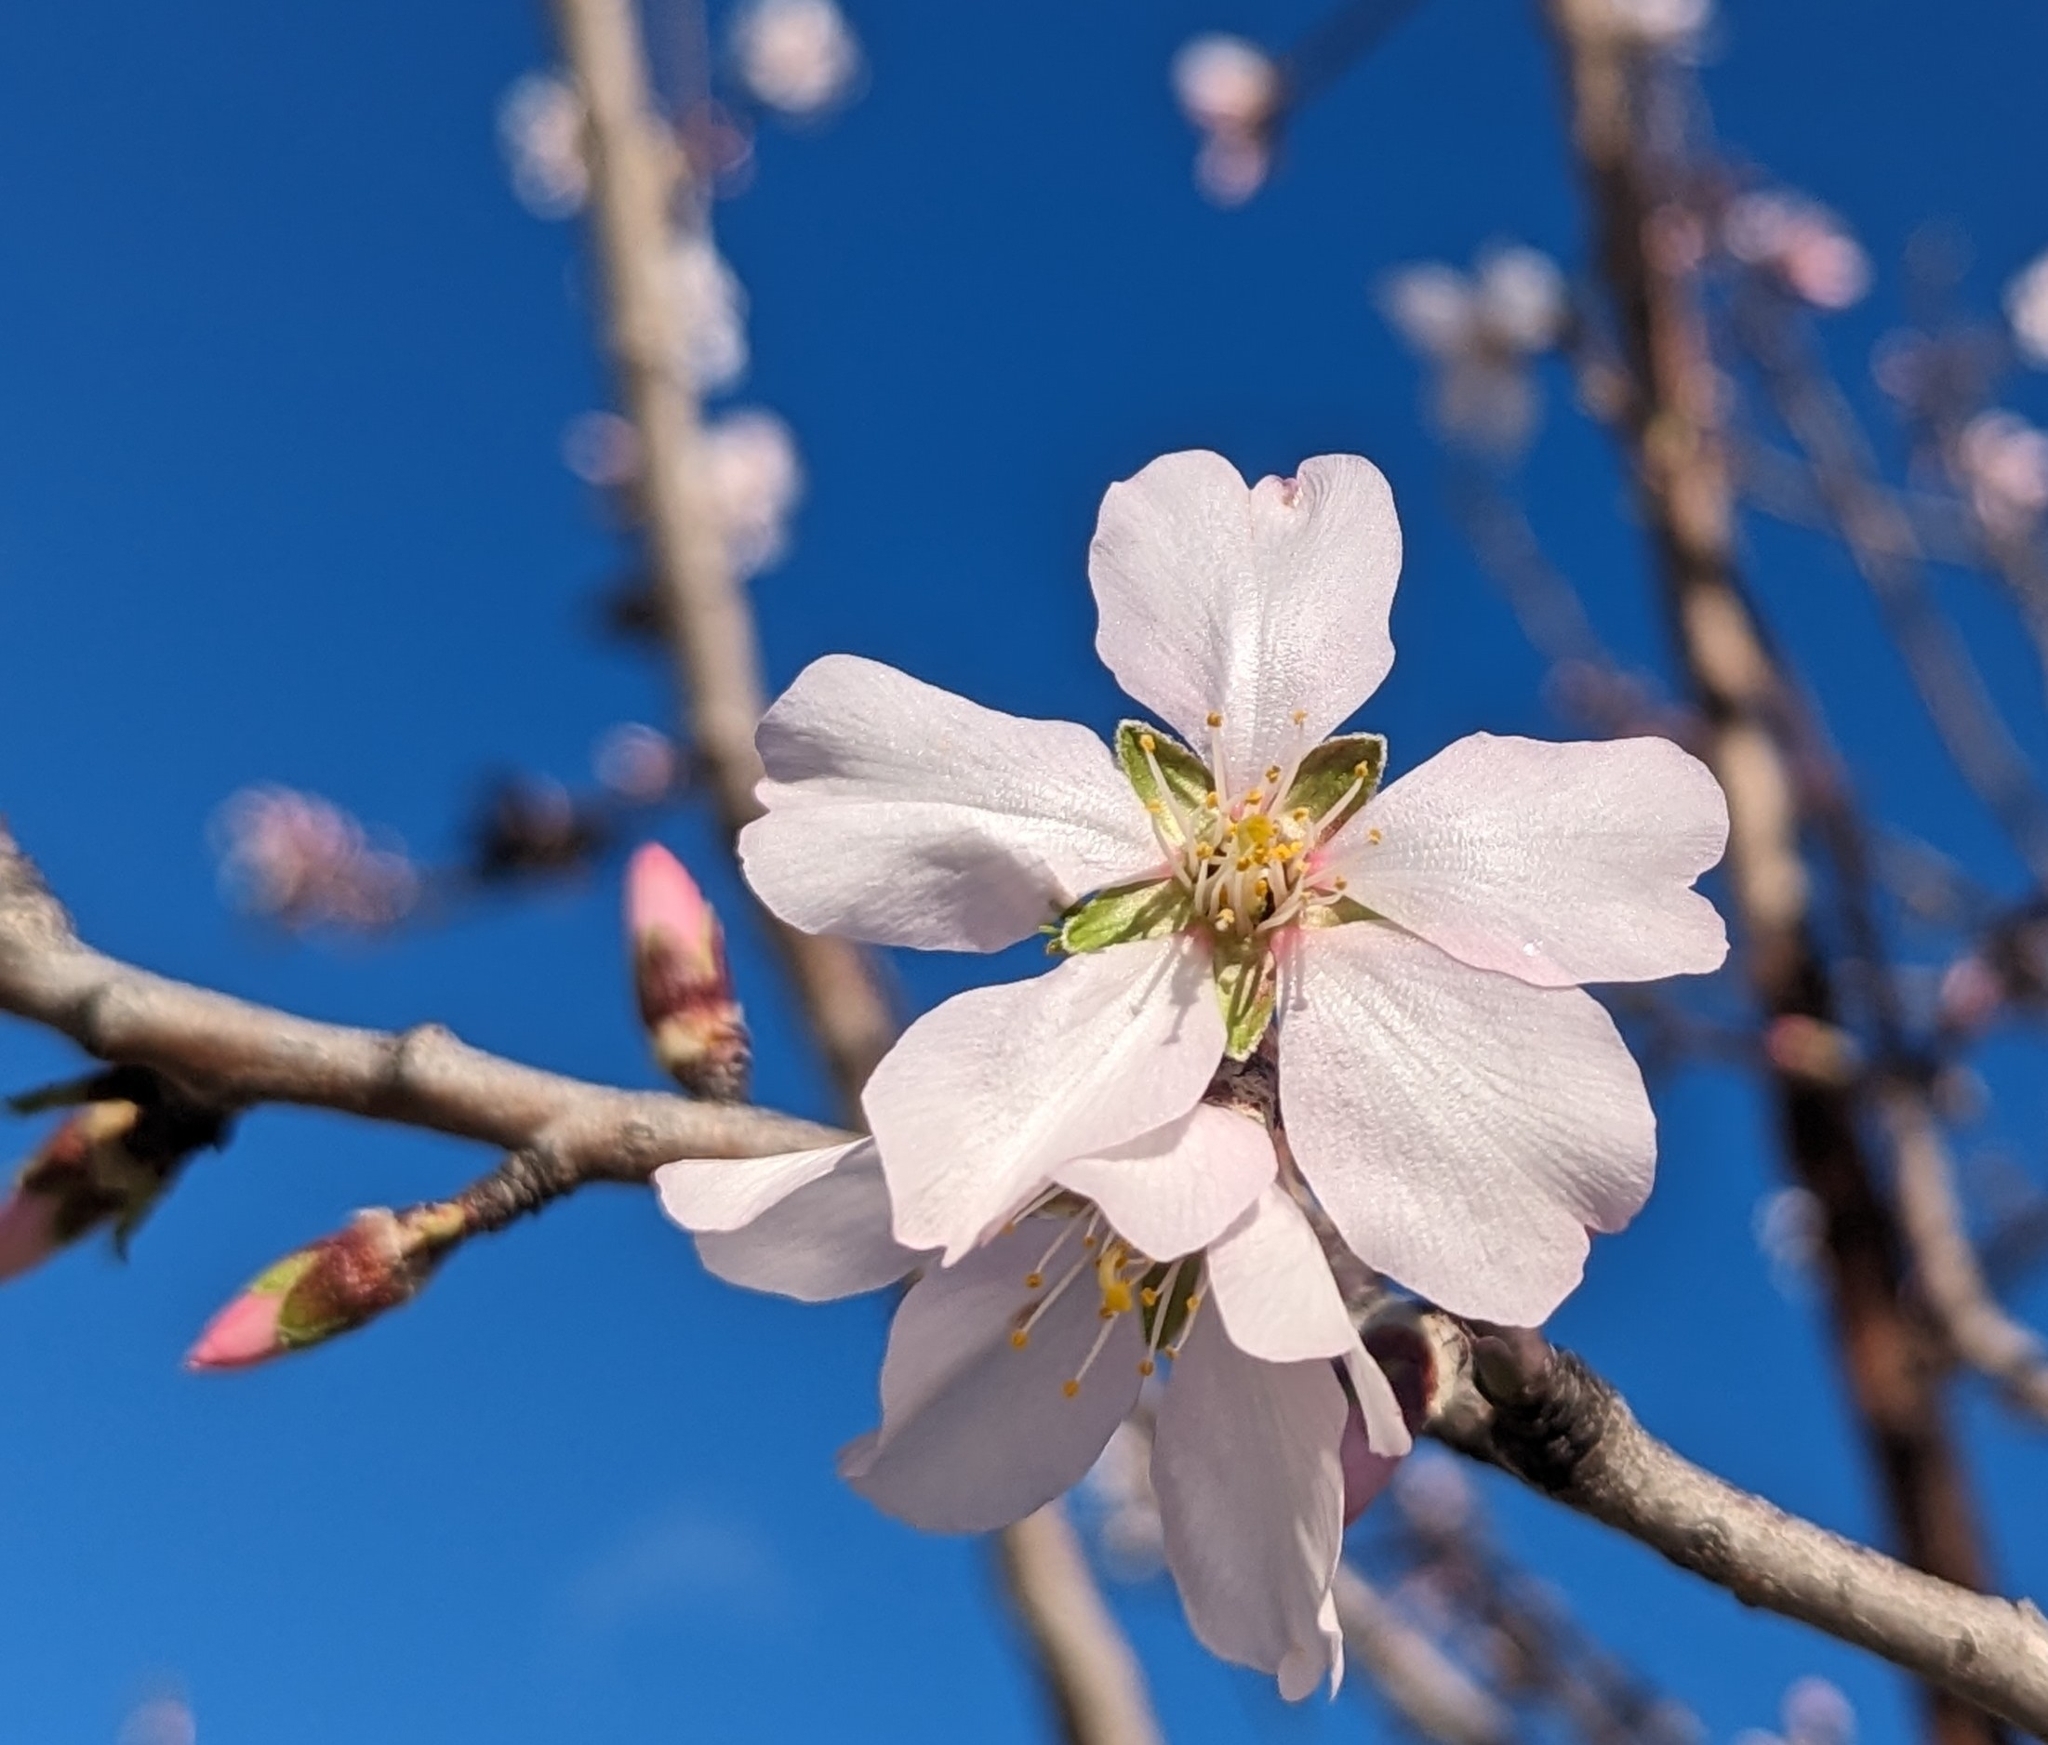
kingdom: Plantae
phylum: Tracheophyta
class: Magnoliopsida
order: Rosales
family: Rosaceae
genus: Prunus
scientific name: Prunus amygdalus
